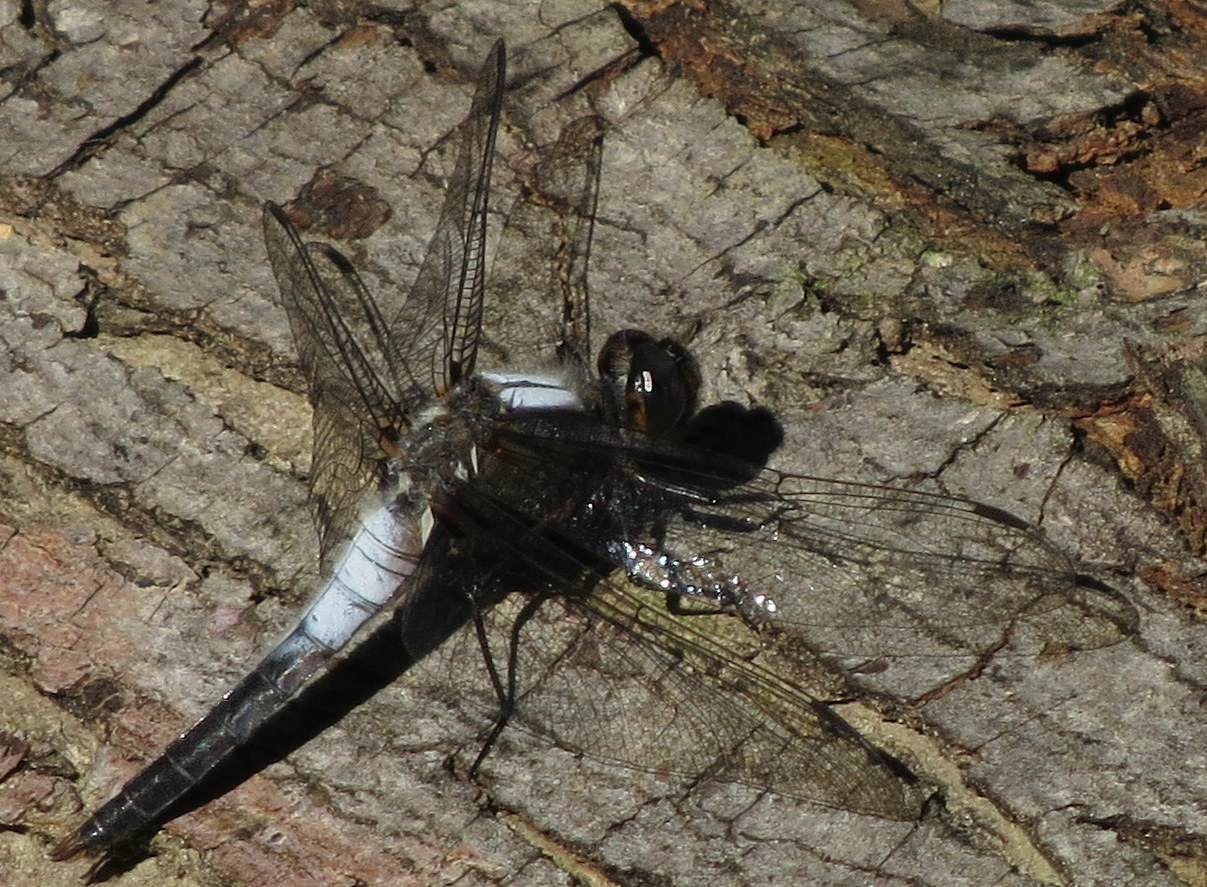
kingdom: Animalia
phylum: Arthropoda
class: Insecta
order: Odonata
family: Libellulidae
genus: Ladona
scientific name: Ladona julia
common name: Chalk-fronted corporal
